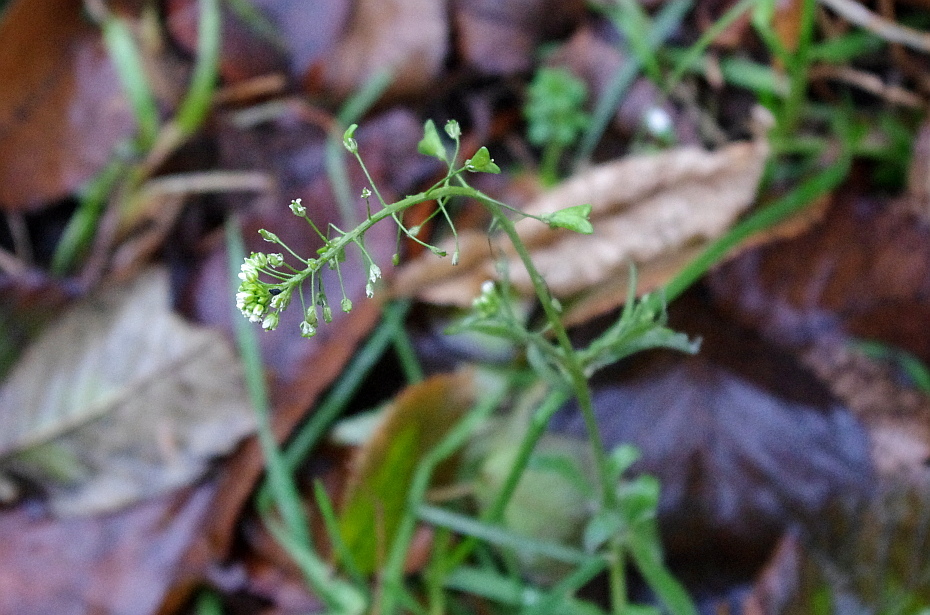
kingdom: Plantae
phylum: Tracheophyta
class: Magnoliopsida
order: Brassicales
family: Brassicaceae
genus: Capsella
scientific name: Capsella bursa-pastoris
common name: Shepherd's purse
